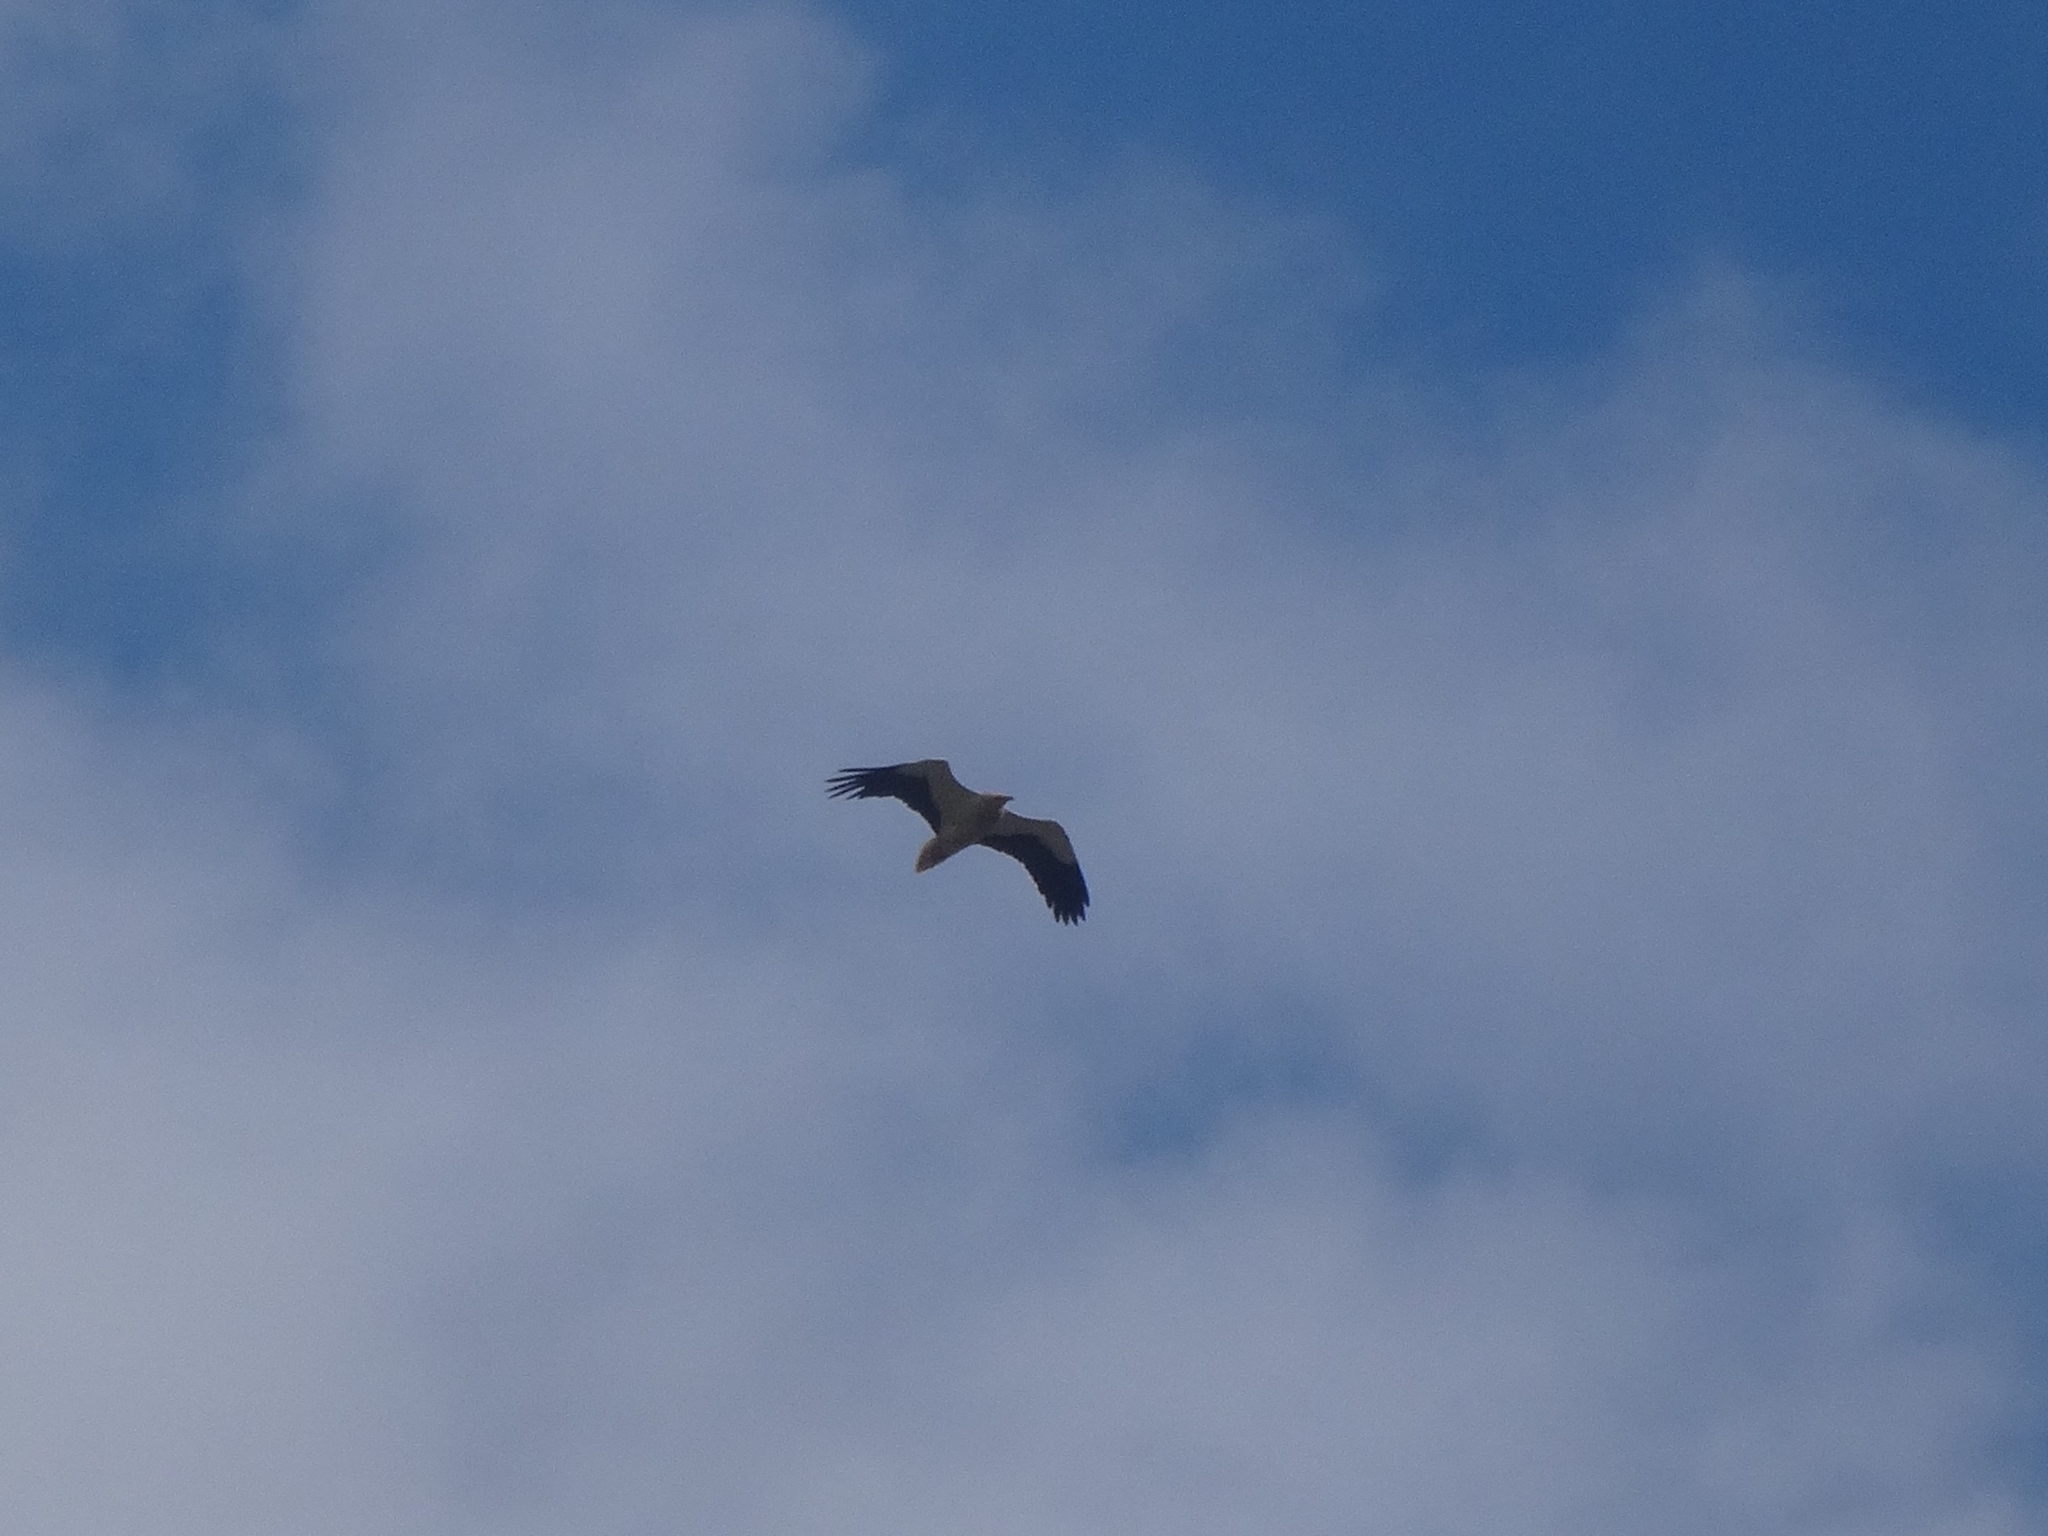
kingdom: Animalia
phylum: Chordata
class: Aves
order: Accipitriformes
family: Accipitridae
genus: Neophron
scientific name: Neophron percnopterus
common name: Egyptian vulture
